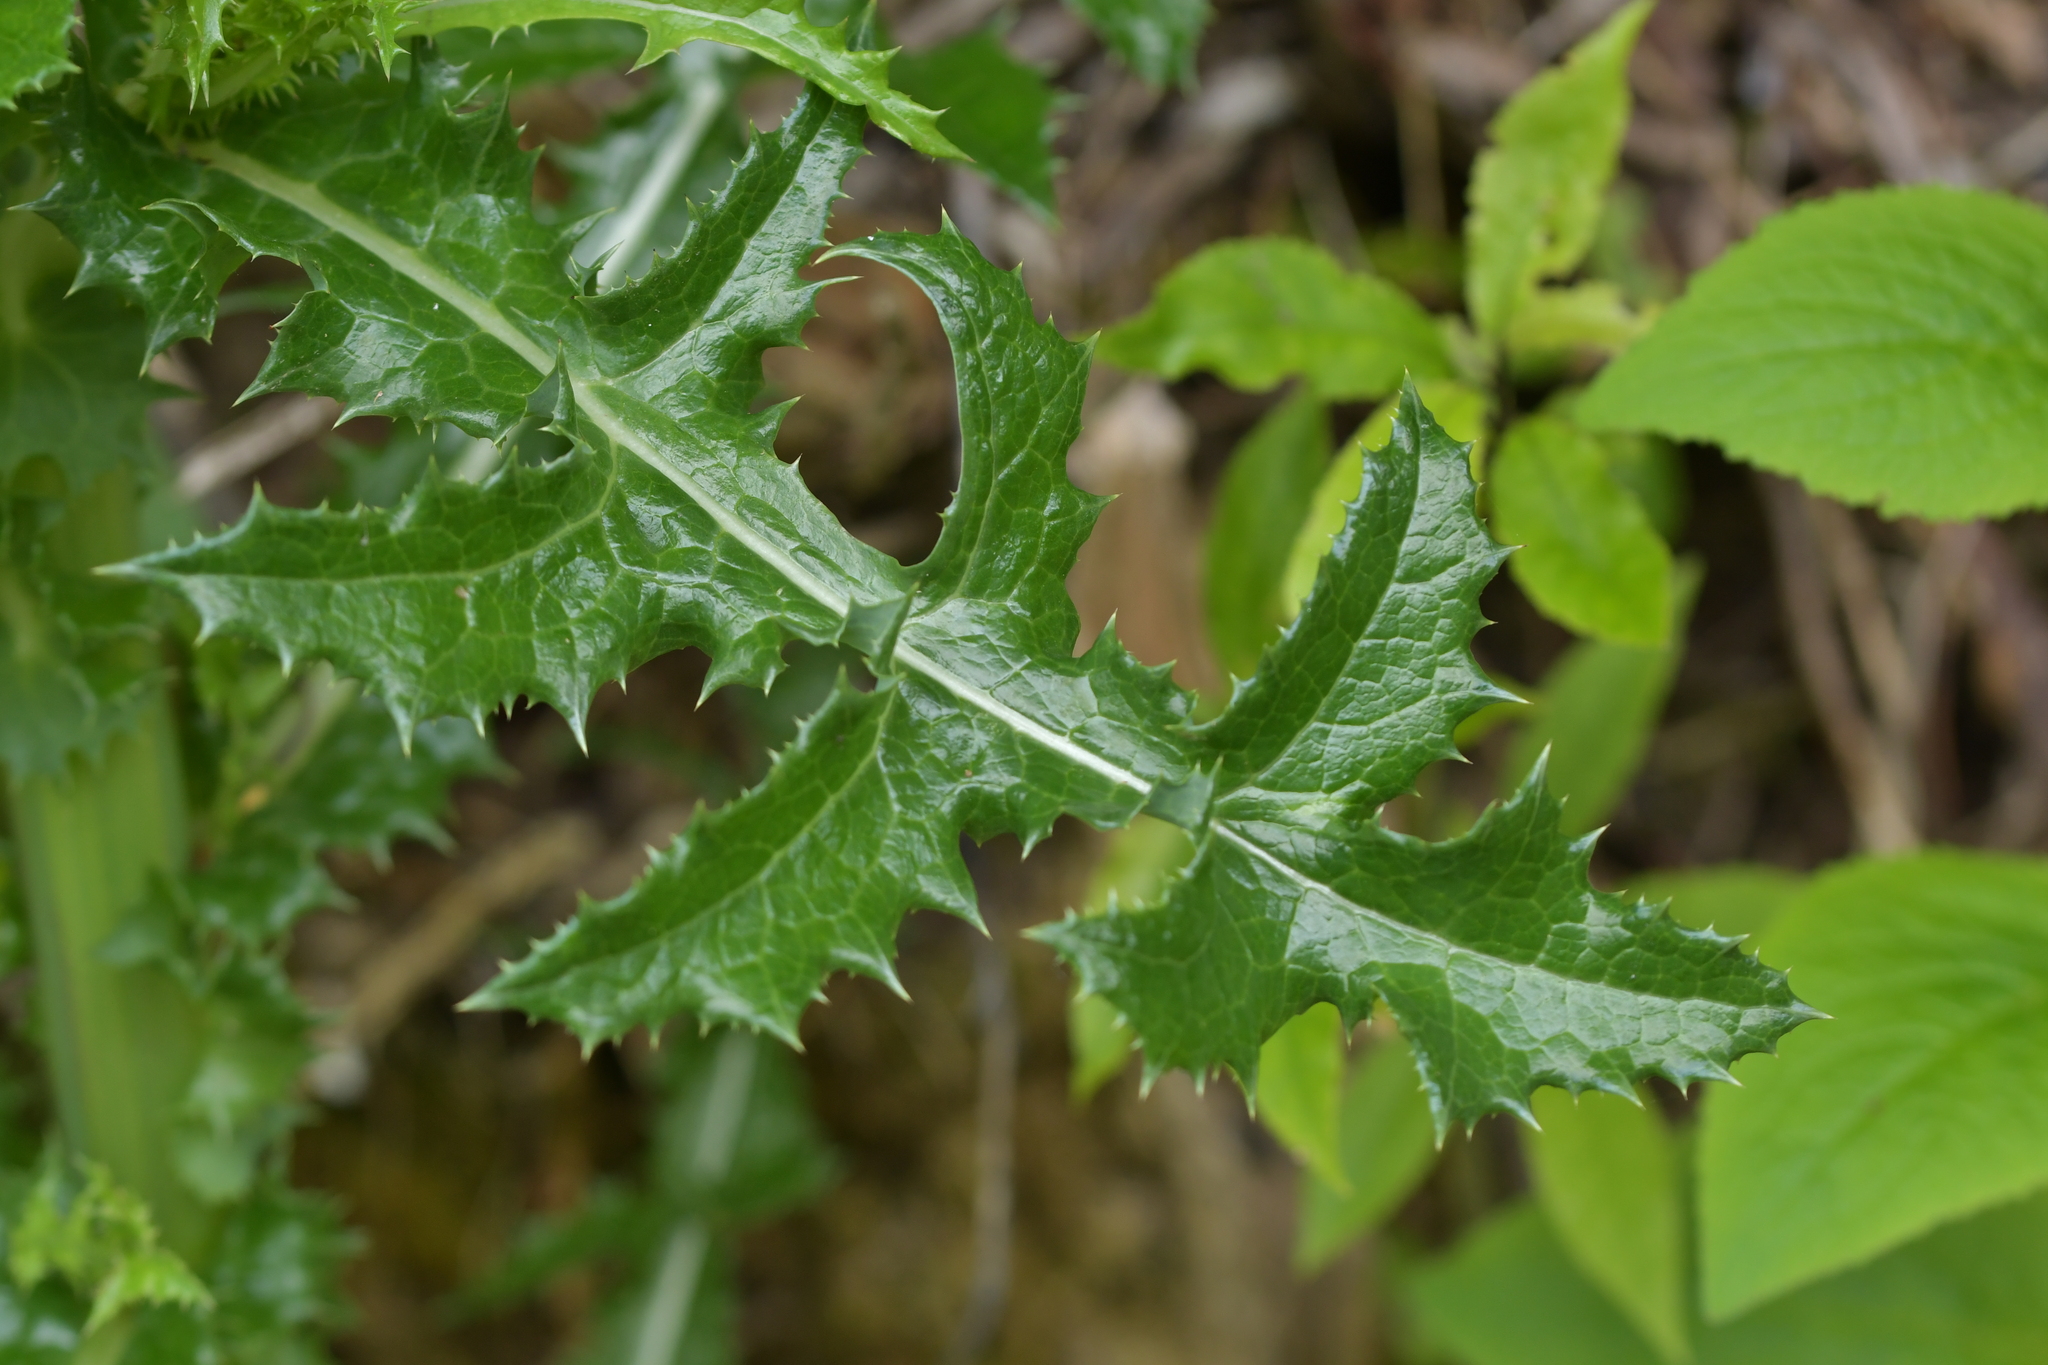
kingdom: Plantae
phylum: Tracheophyta
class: Magnoliopsida
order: Asterales
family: Asteraceae
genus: Sonchus
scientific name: Sonchus asper
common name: Prickly sow-thistle
